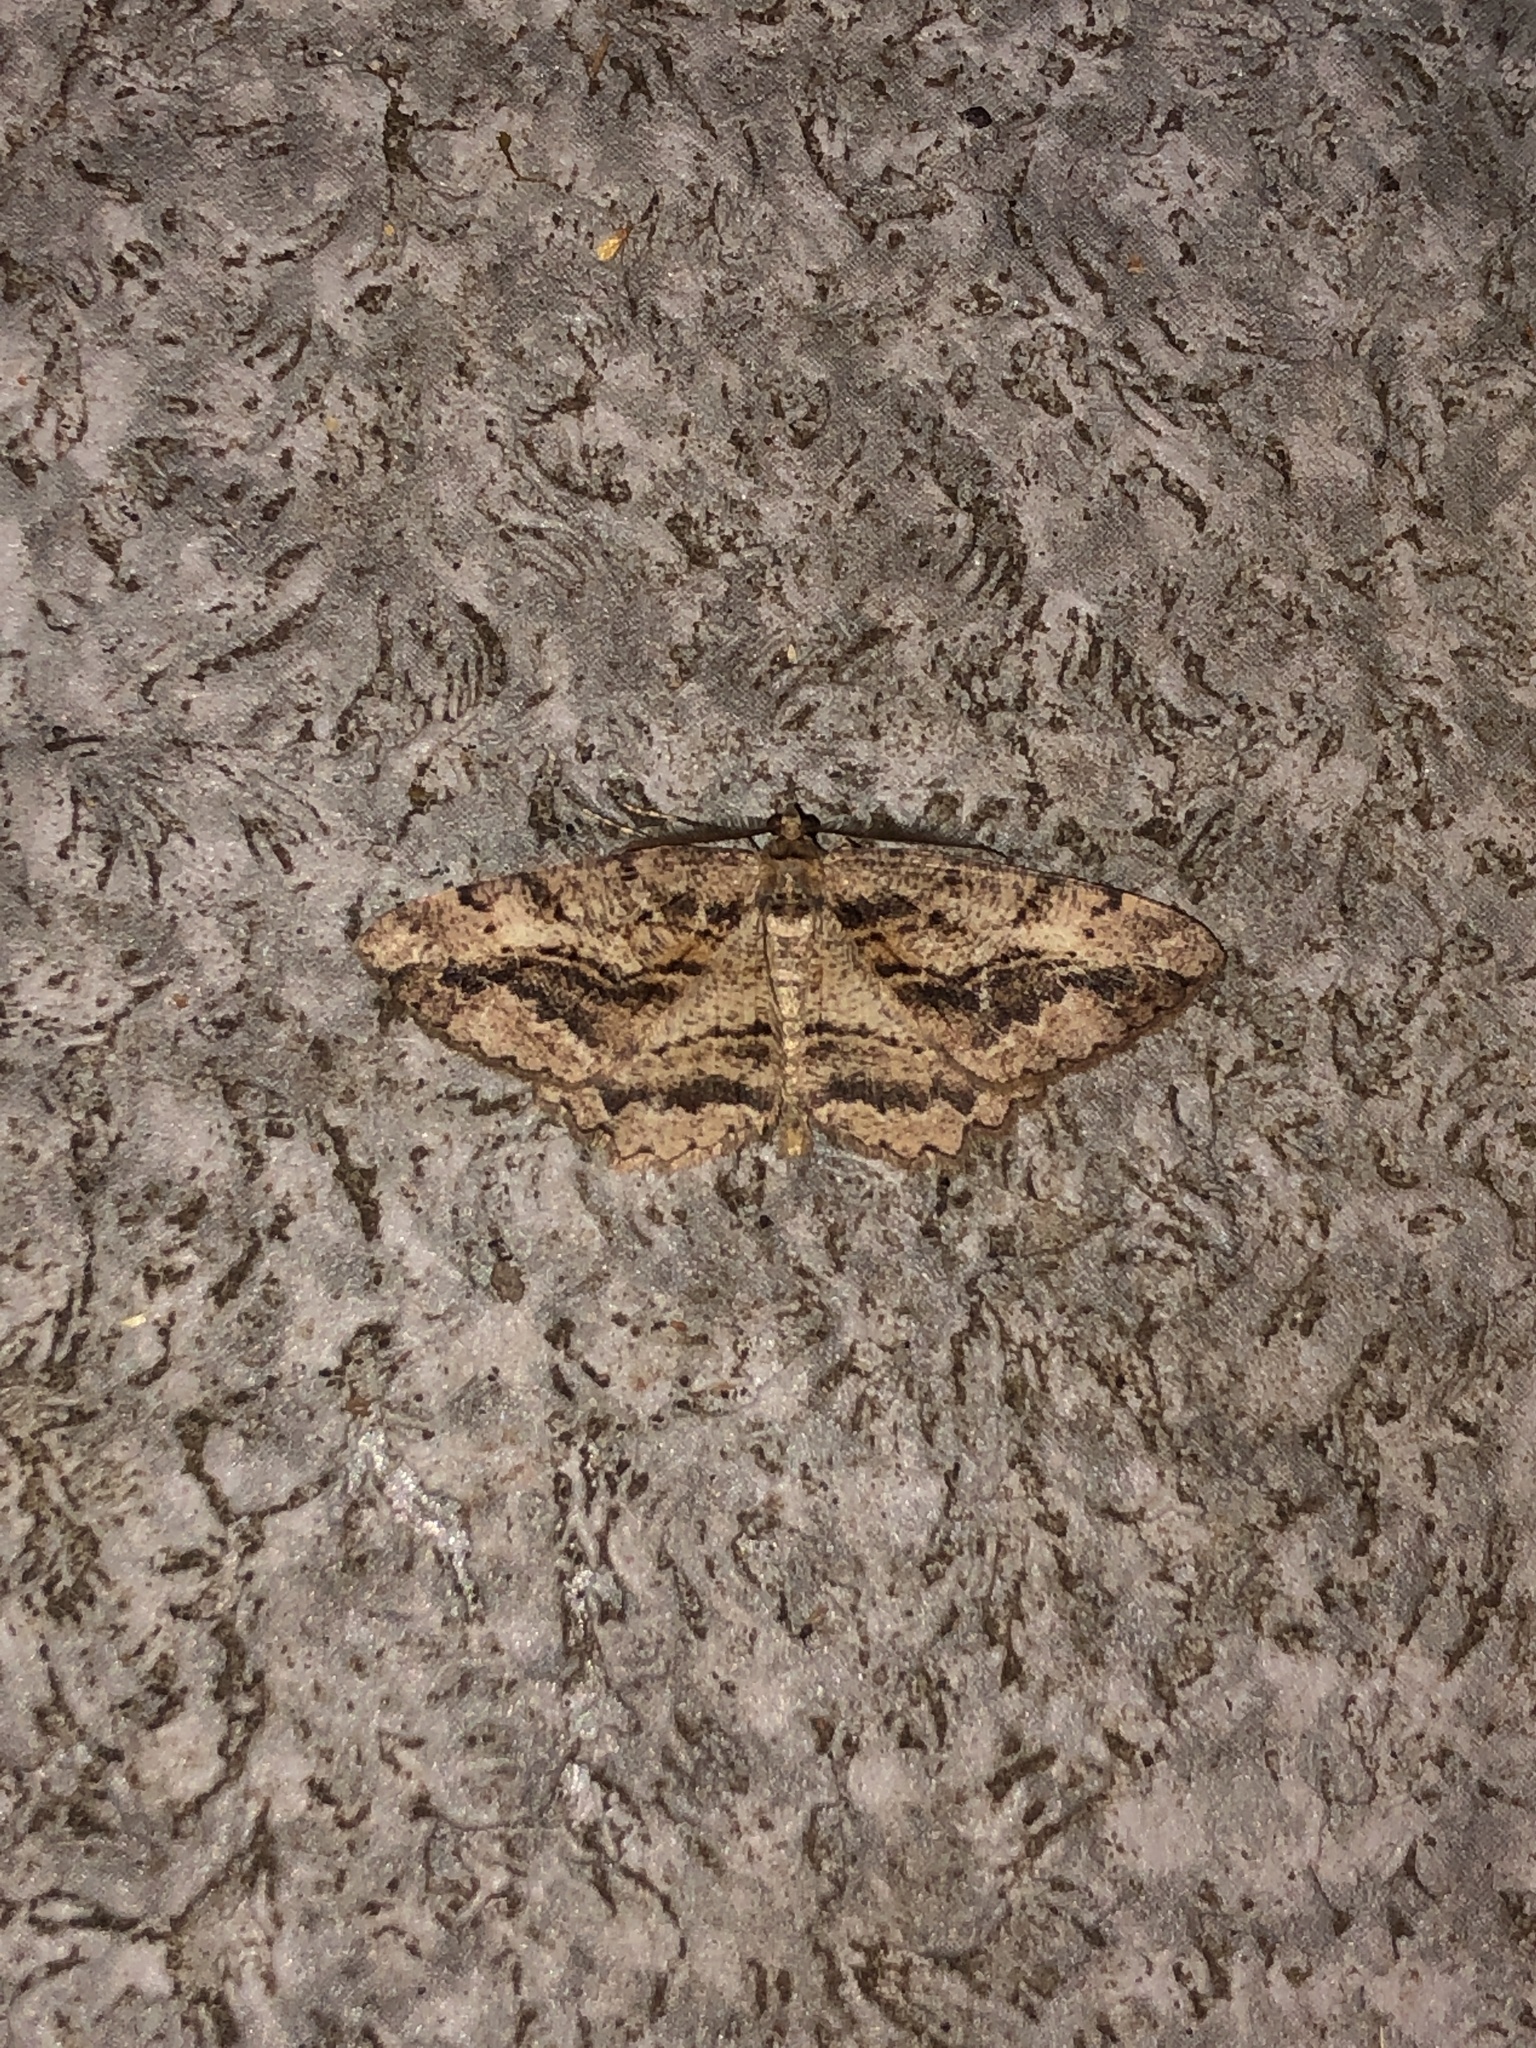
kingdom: Animalia
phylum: Arthropoda
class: Insecta
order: Lepidoptera
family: Geometridae
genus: Neoalcis
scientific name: Neoalcis californiaria
